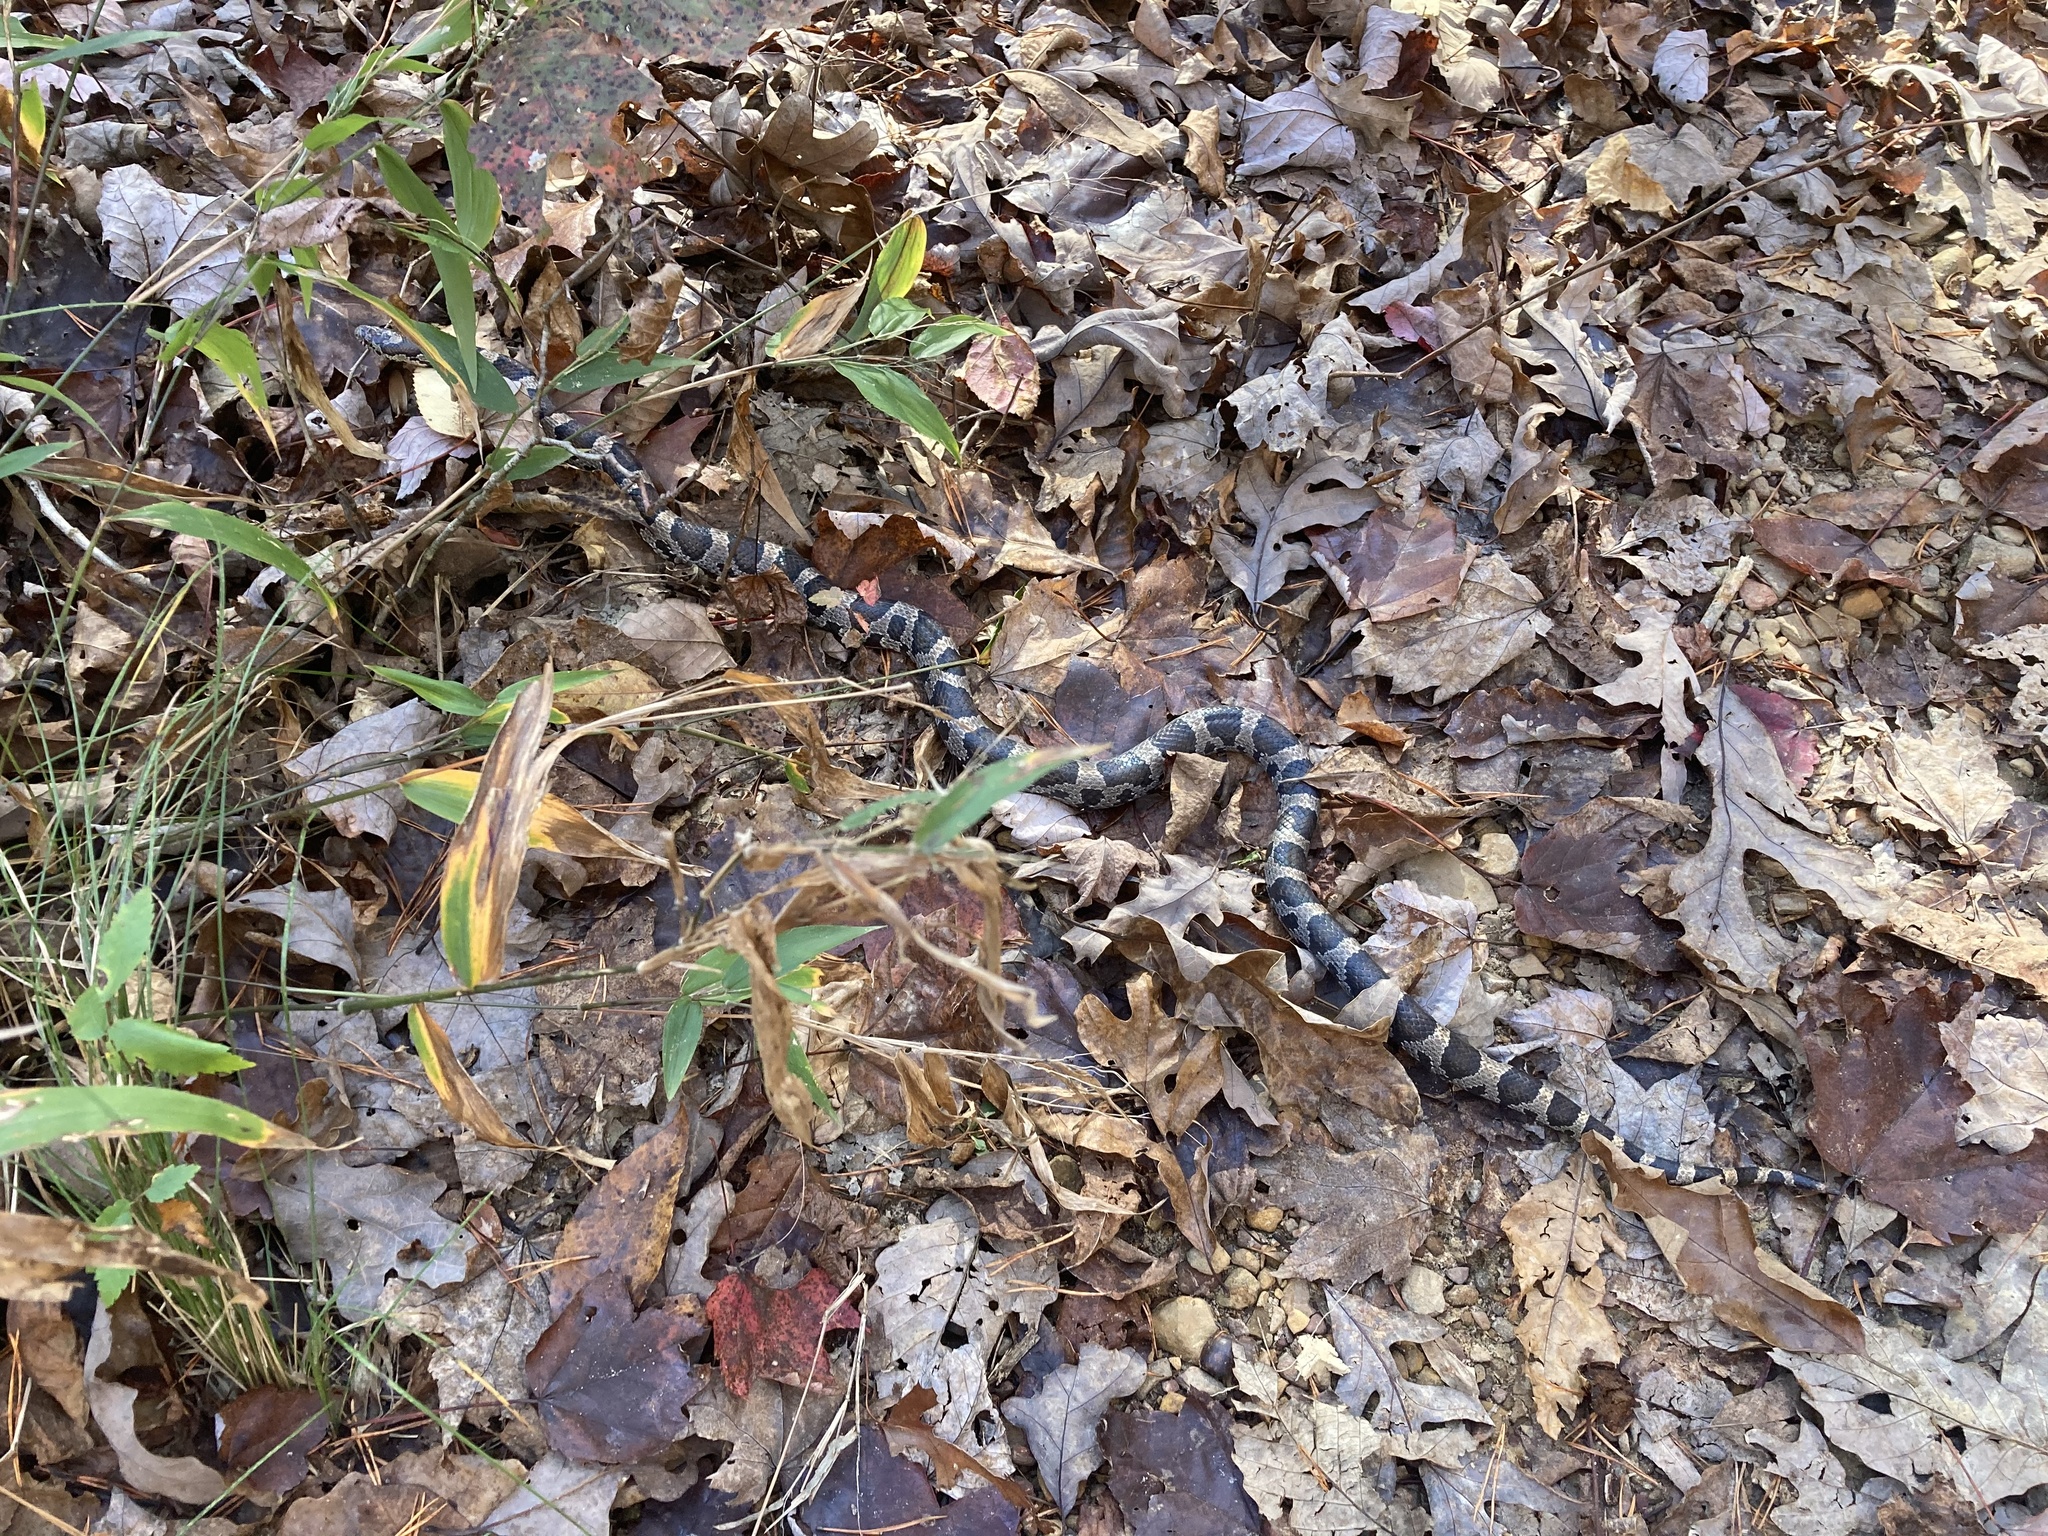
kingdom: Animalia
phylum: Chordata
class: Squamata
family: Colubridae
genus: Lampropeltis
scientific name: Lampropeltis triangulum
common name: Eastern milksnake
